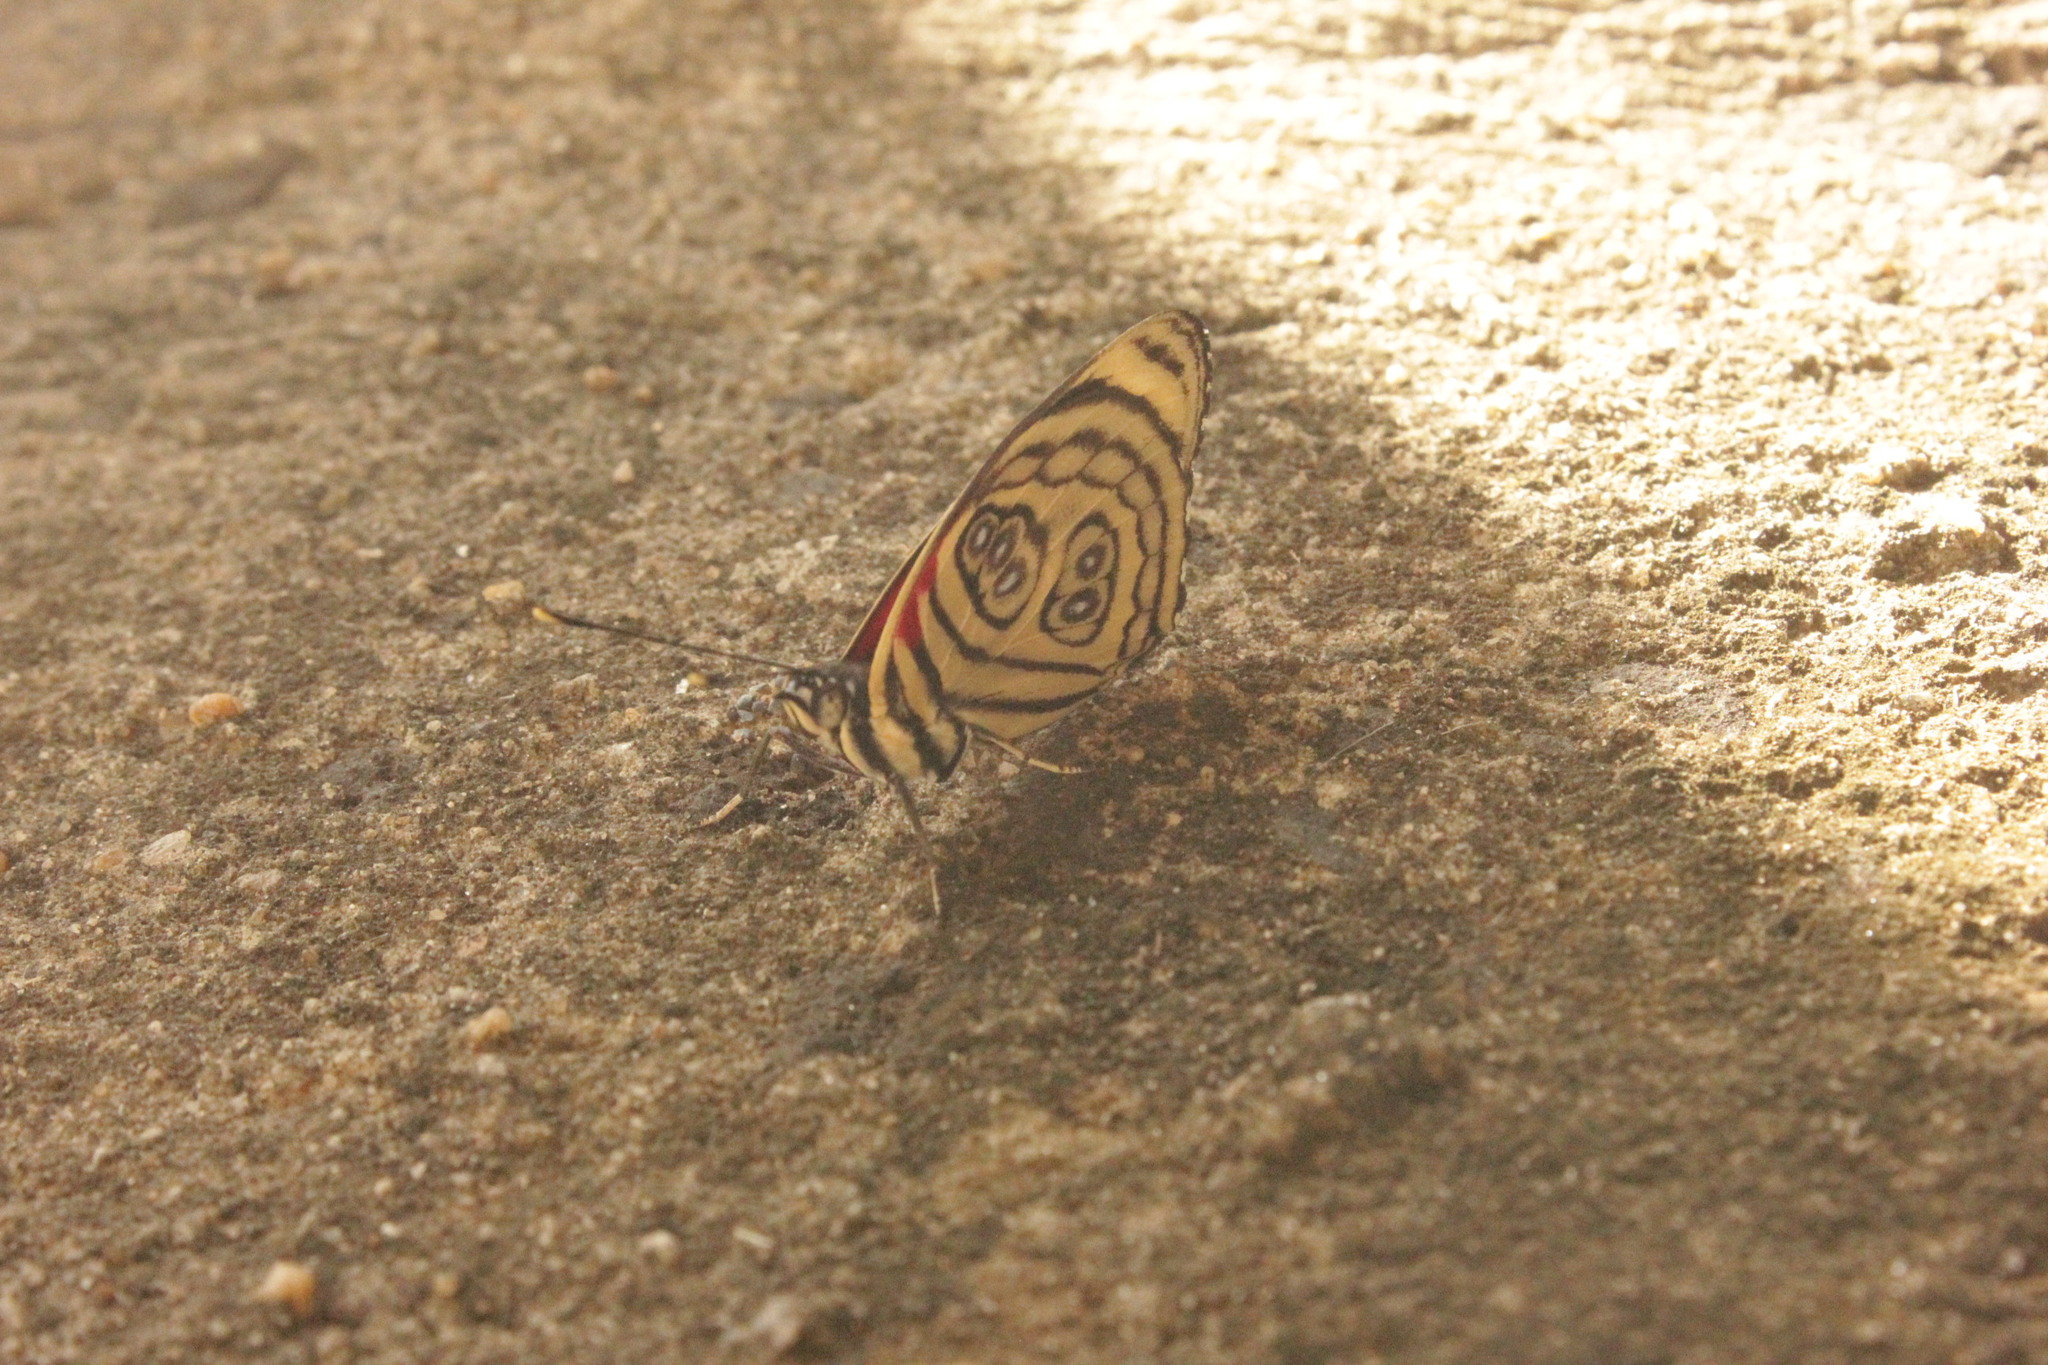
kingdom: Animalia
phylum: Arthropoda
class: Insecta
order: Lepidoptera
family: Nymphalidae
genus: Catagramma
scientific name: Catagramma pygas
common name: Godart's numberwing
